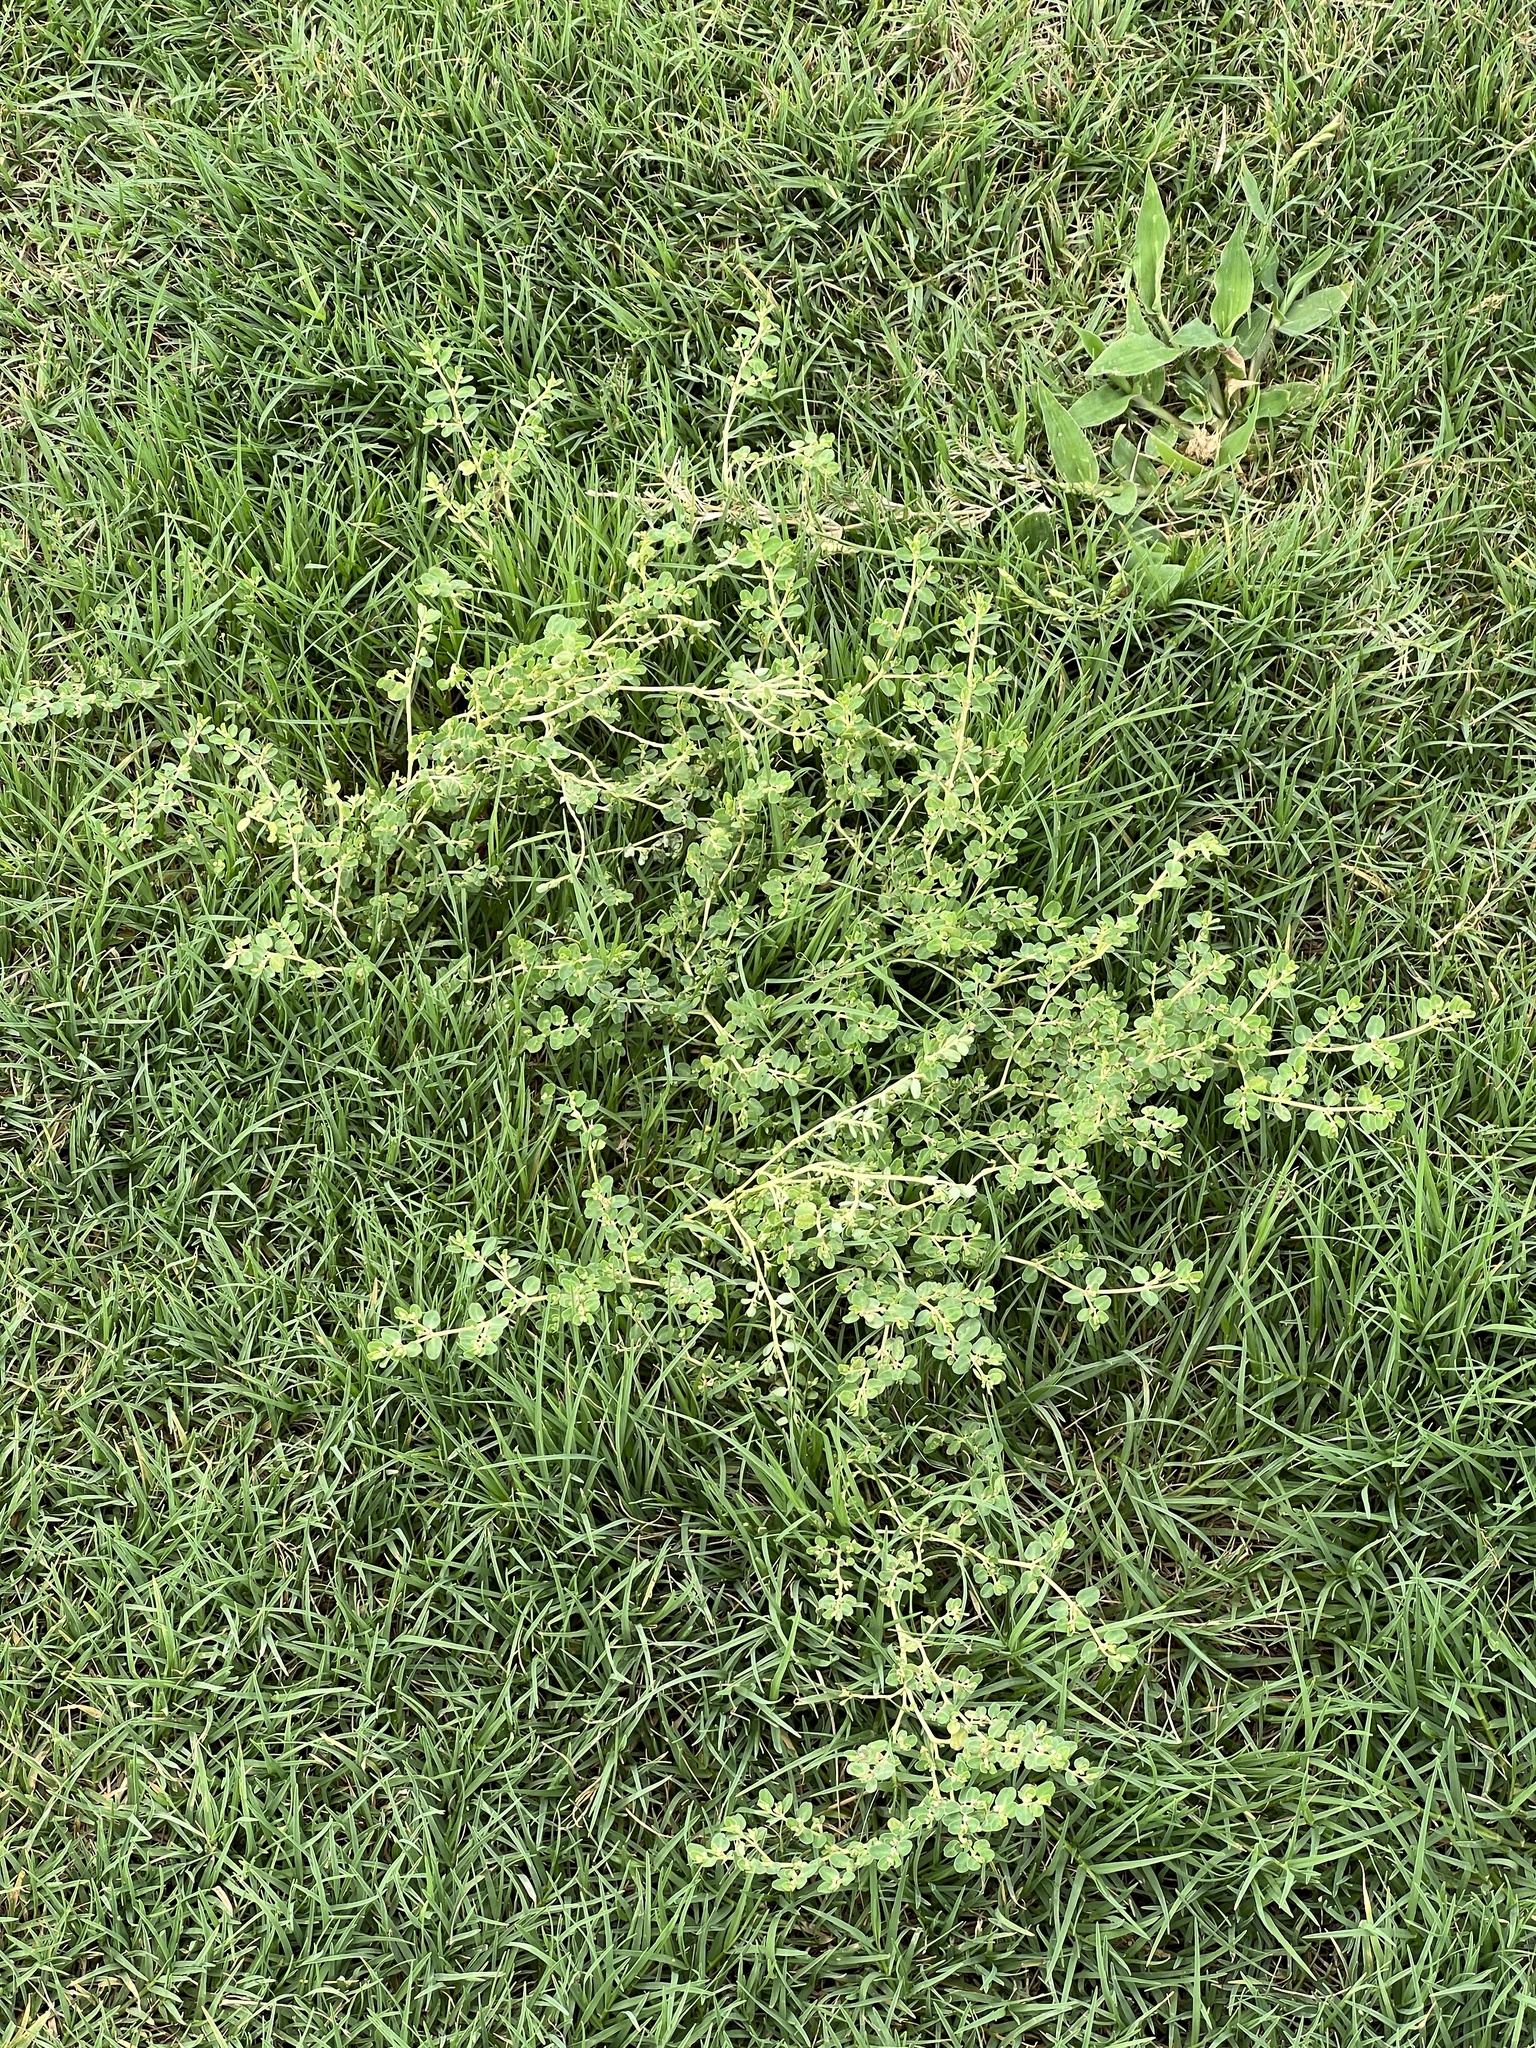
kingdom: Plantae
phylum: Tracheophyta
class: Magnoliopsida
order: Malpighiales
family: Euphorbiaceae
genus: Euphorbia
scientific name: Euphorbia serpens
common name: Matted sandmat
